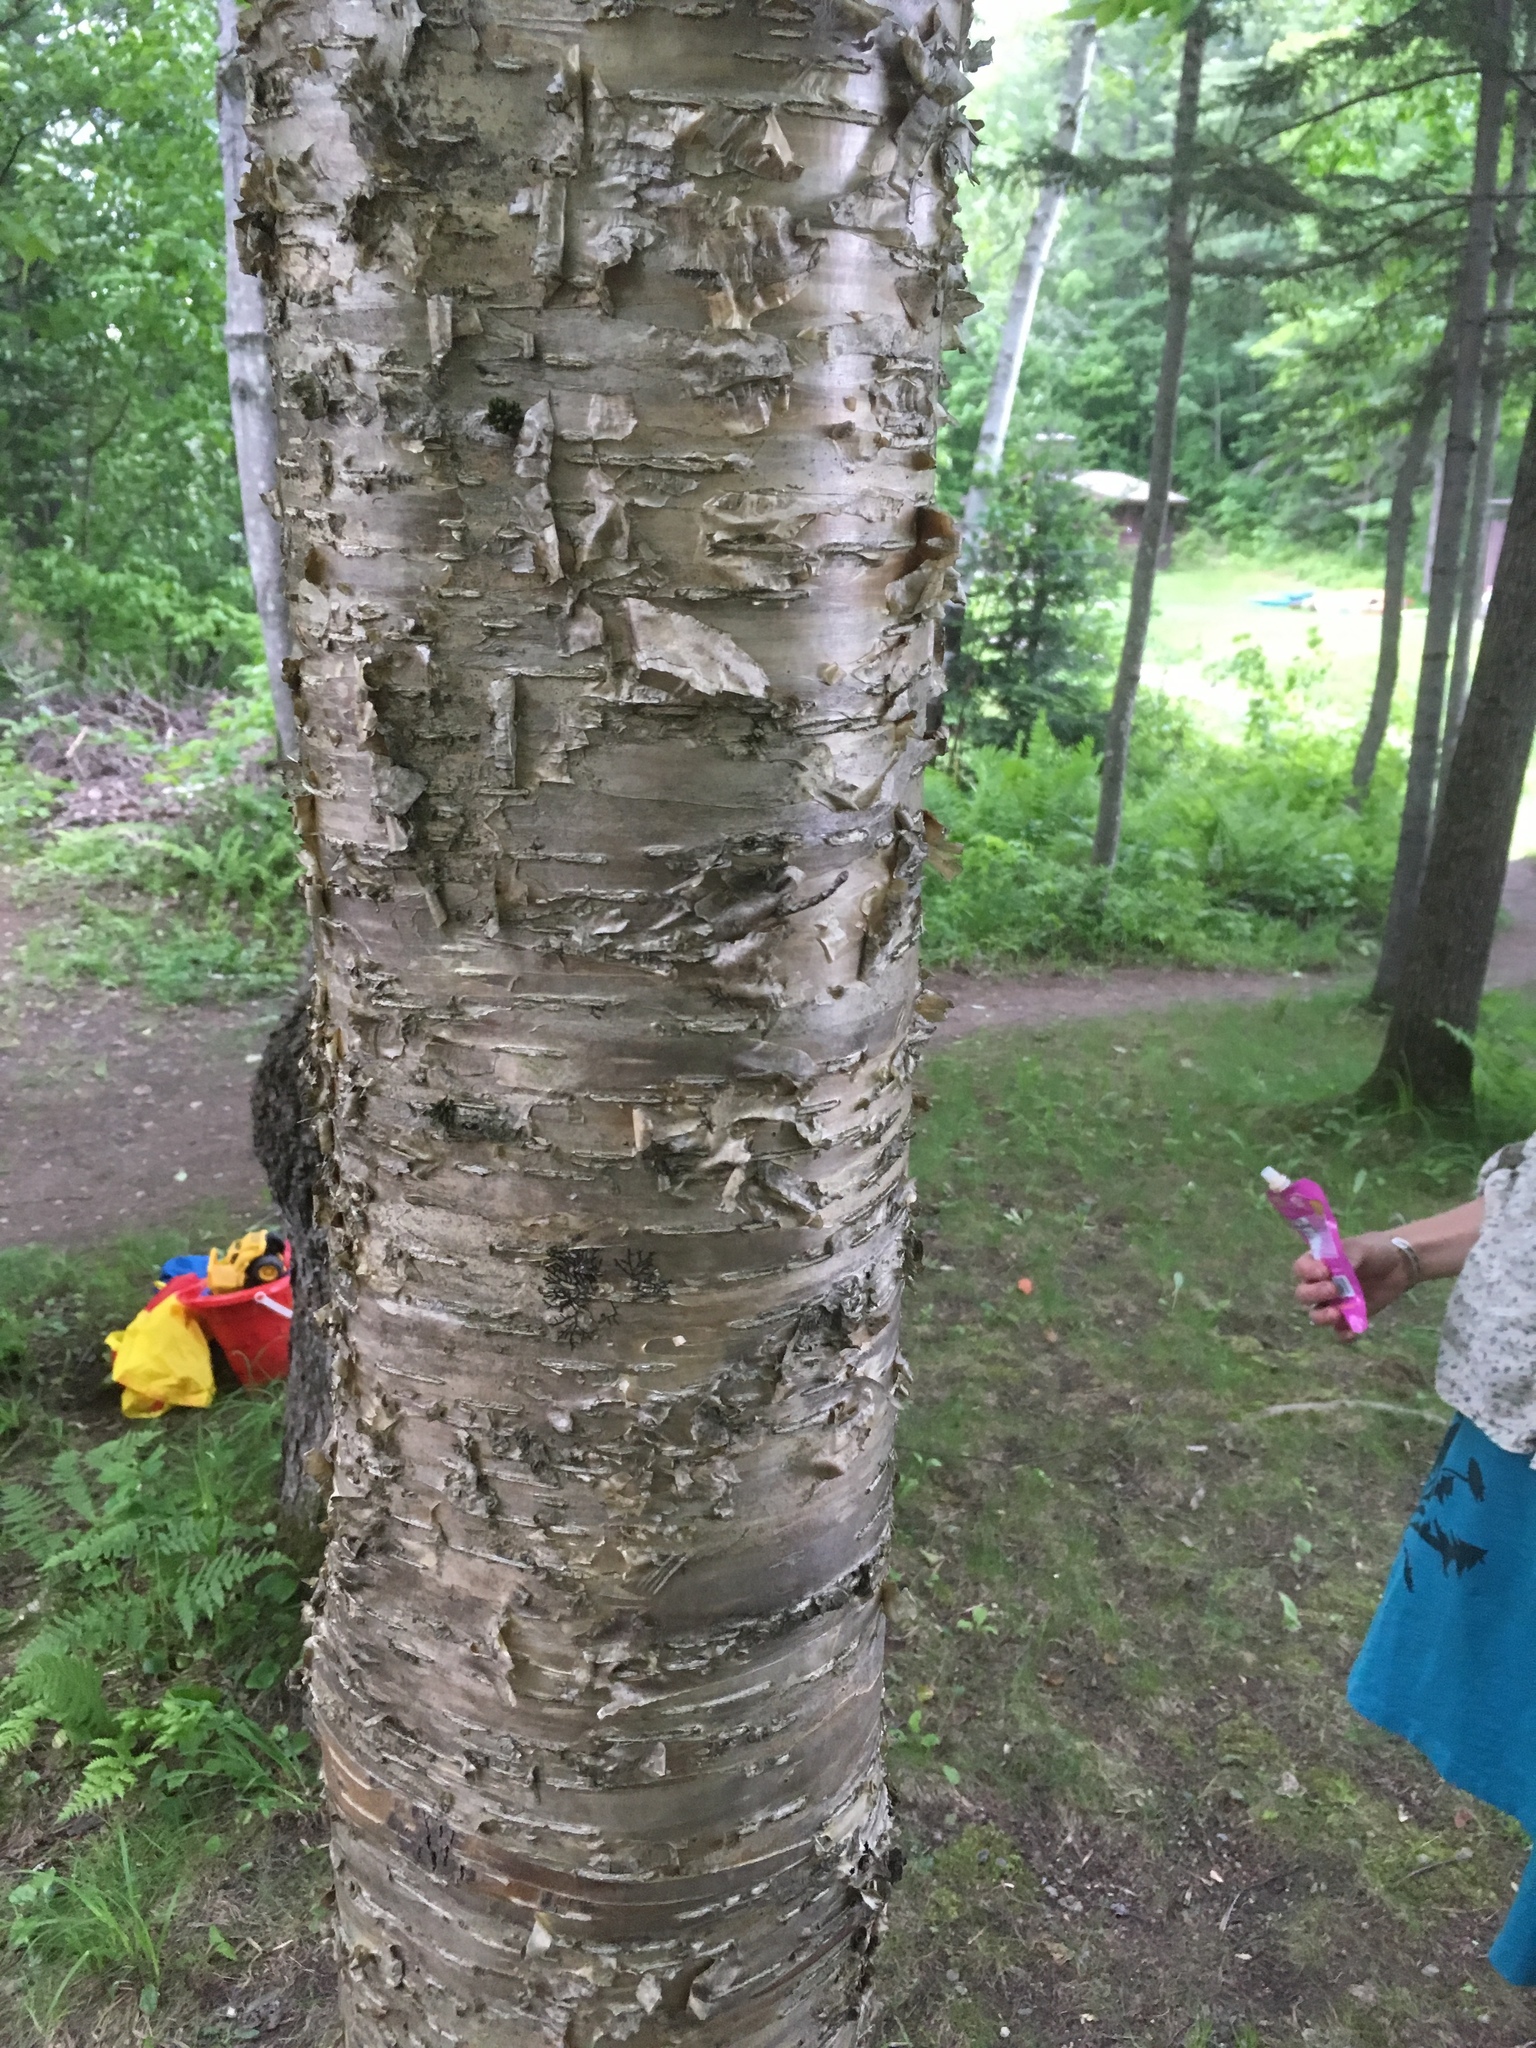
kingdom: Plantae
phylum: Tracheophyta
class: Magnoliopsida
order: Fagales
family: Betulaceae
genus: Betula
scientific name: Betula alleghaniensis
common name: Yellow birch
